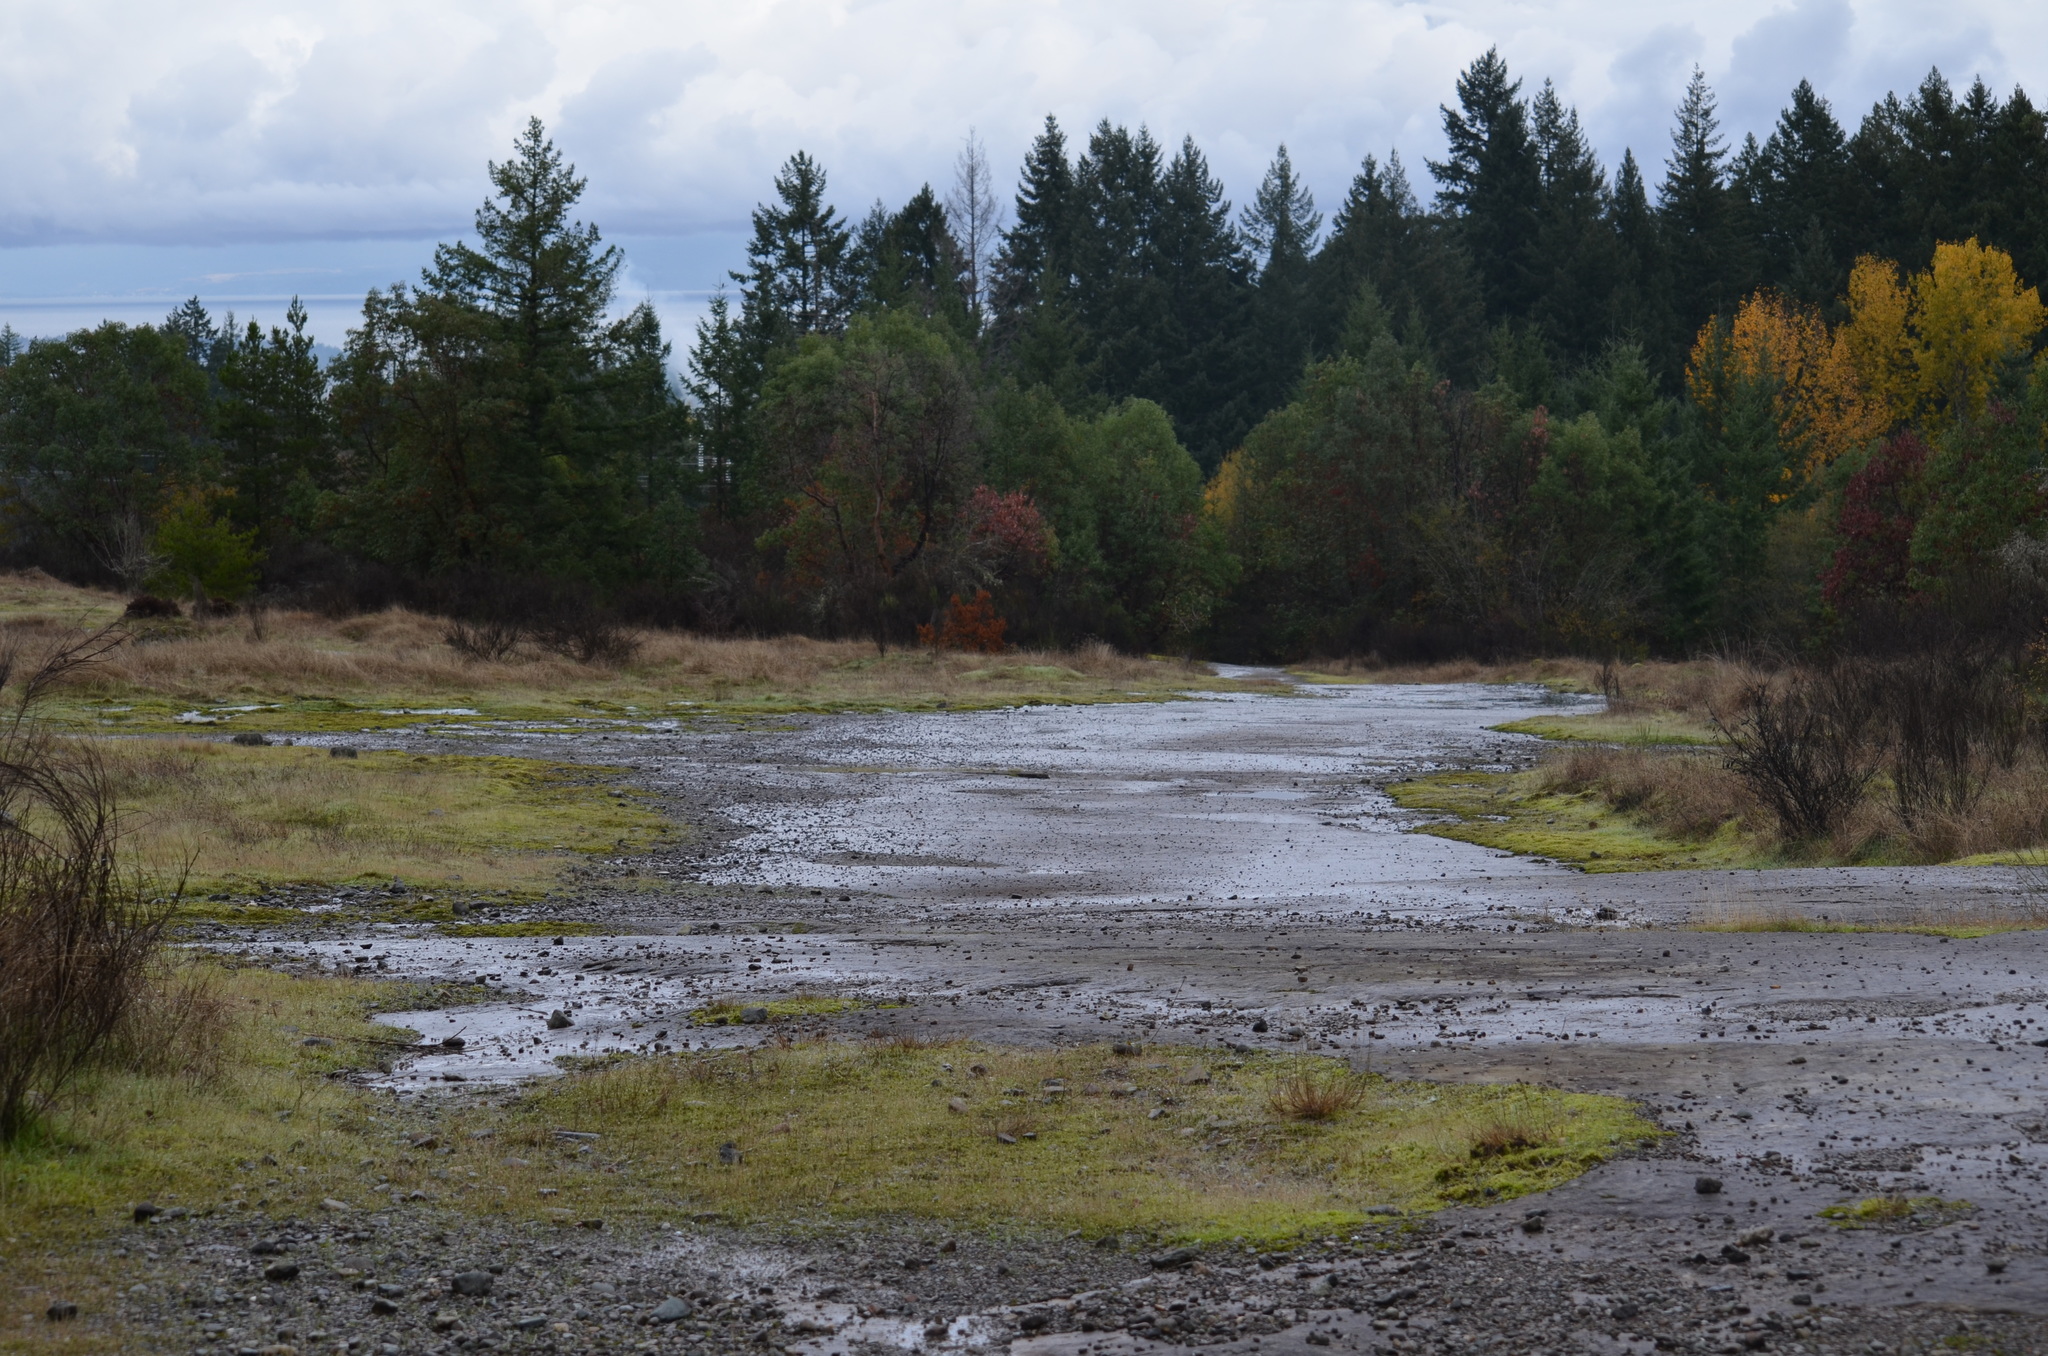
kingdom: Plantae
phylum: Tracheophyta
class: Magnoliopsida
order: Ericales
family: Ericaceae
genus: Arbutus
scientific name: Arbutus menziesii
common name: Pacific madrone
